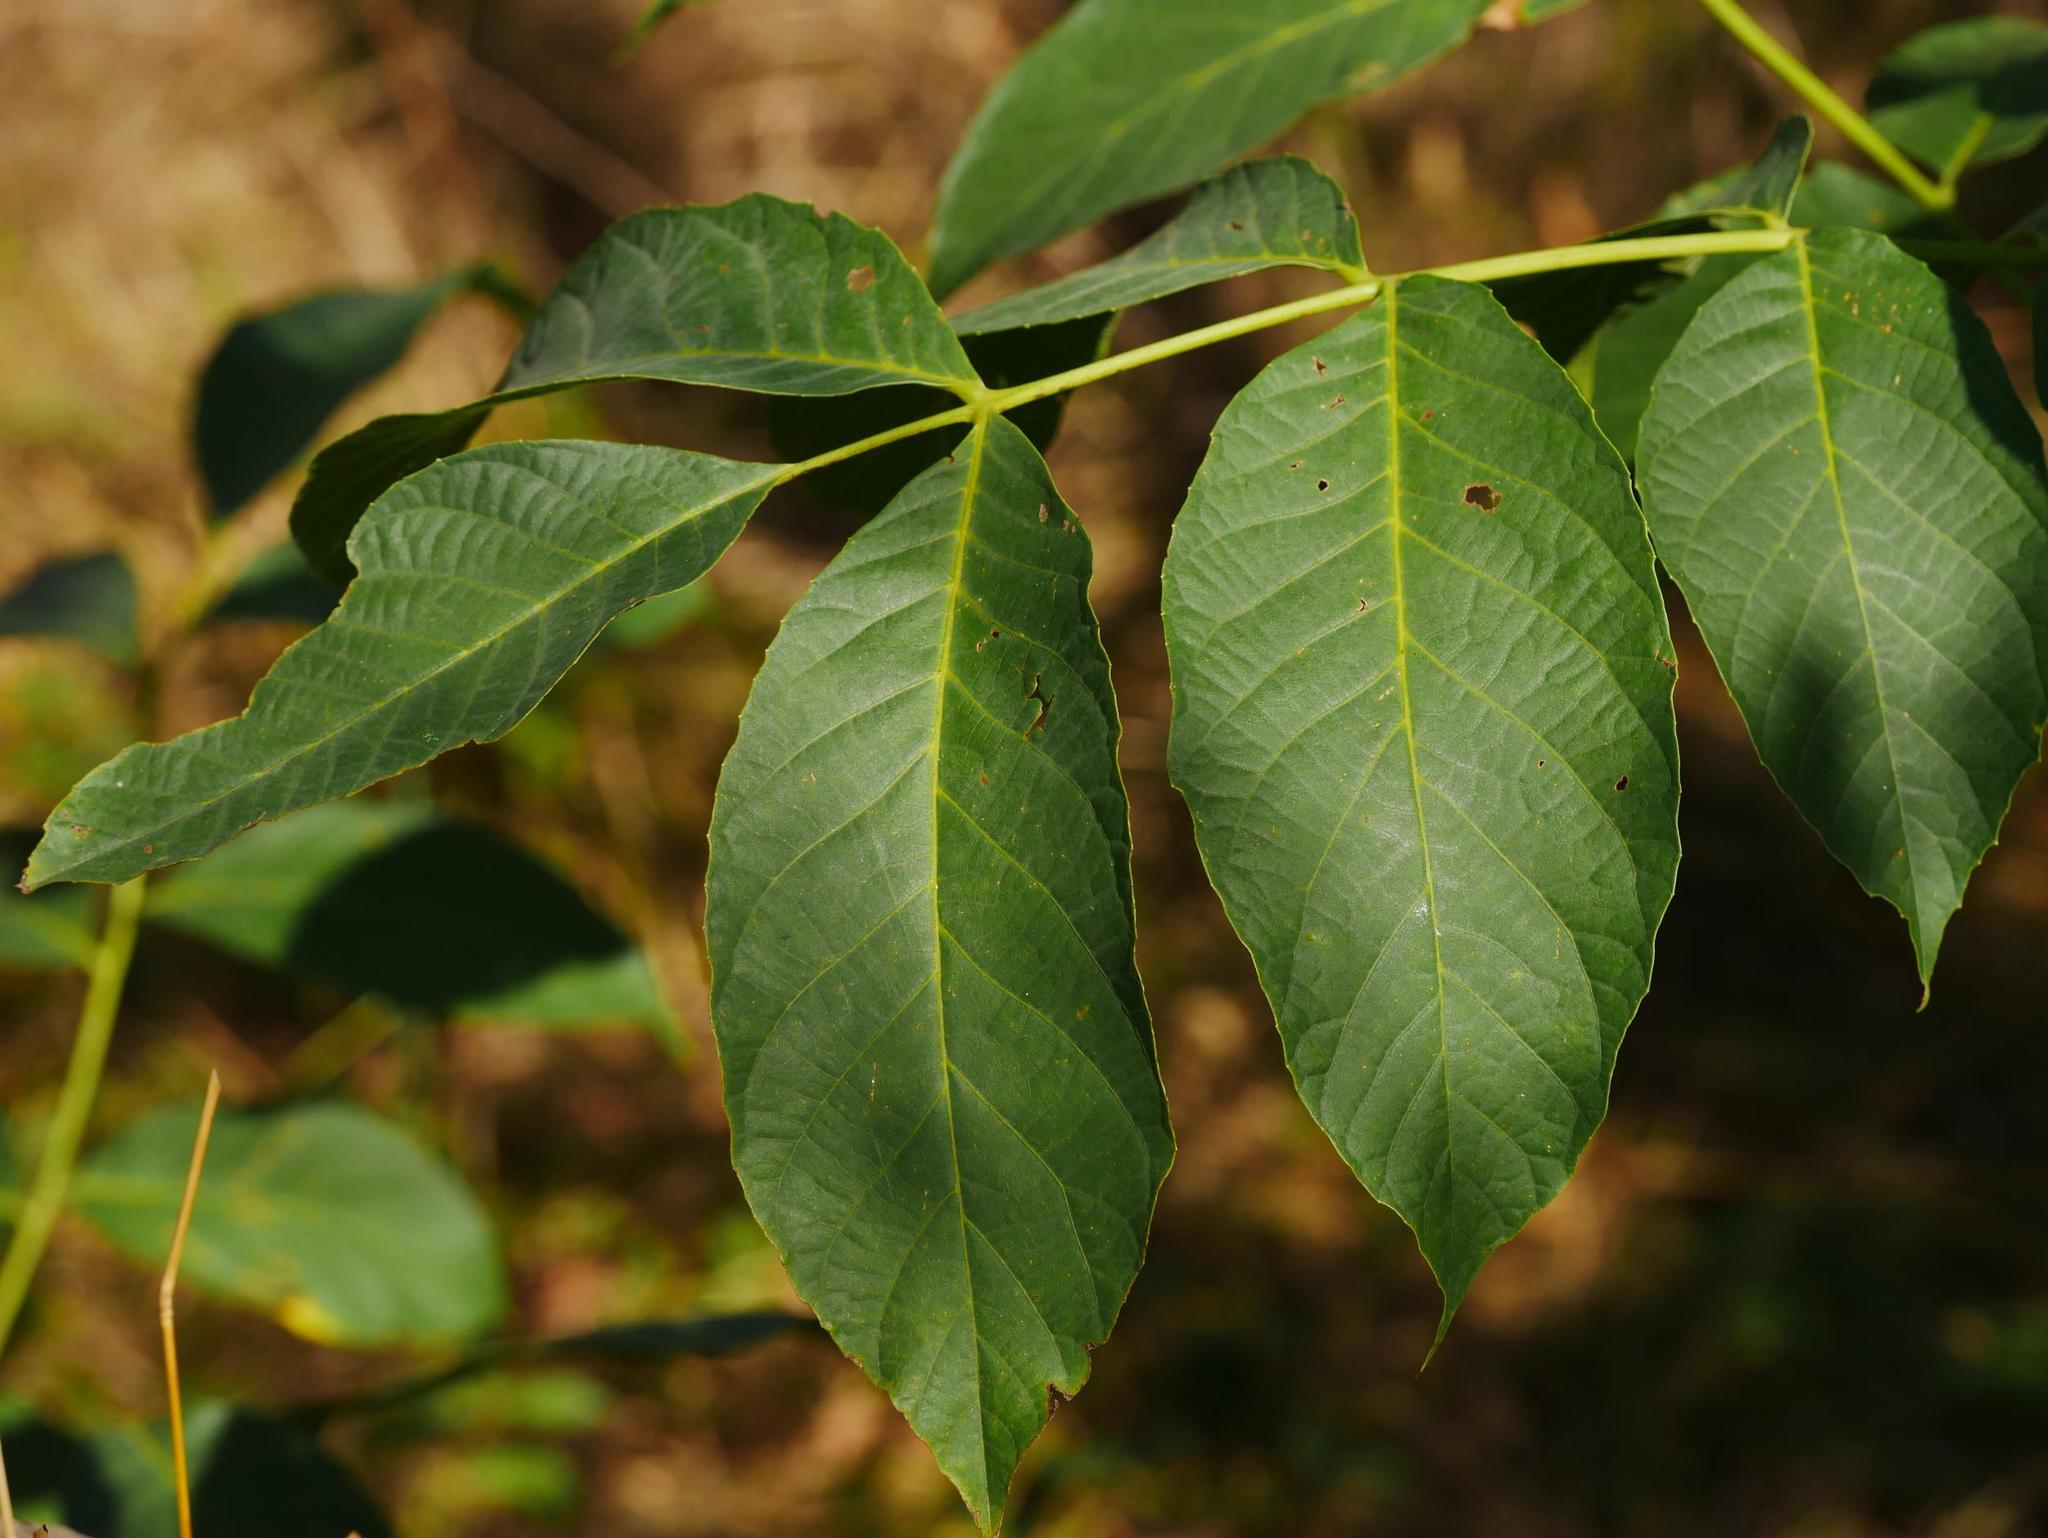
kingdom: Plantae
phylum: Tracheophyta
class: Magnoliopsida
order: Fagales
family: Juglandaceae
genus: Juglans
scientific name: Juglans regia
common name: Walnut
